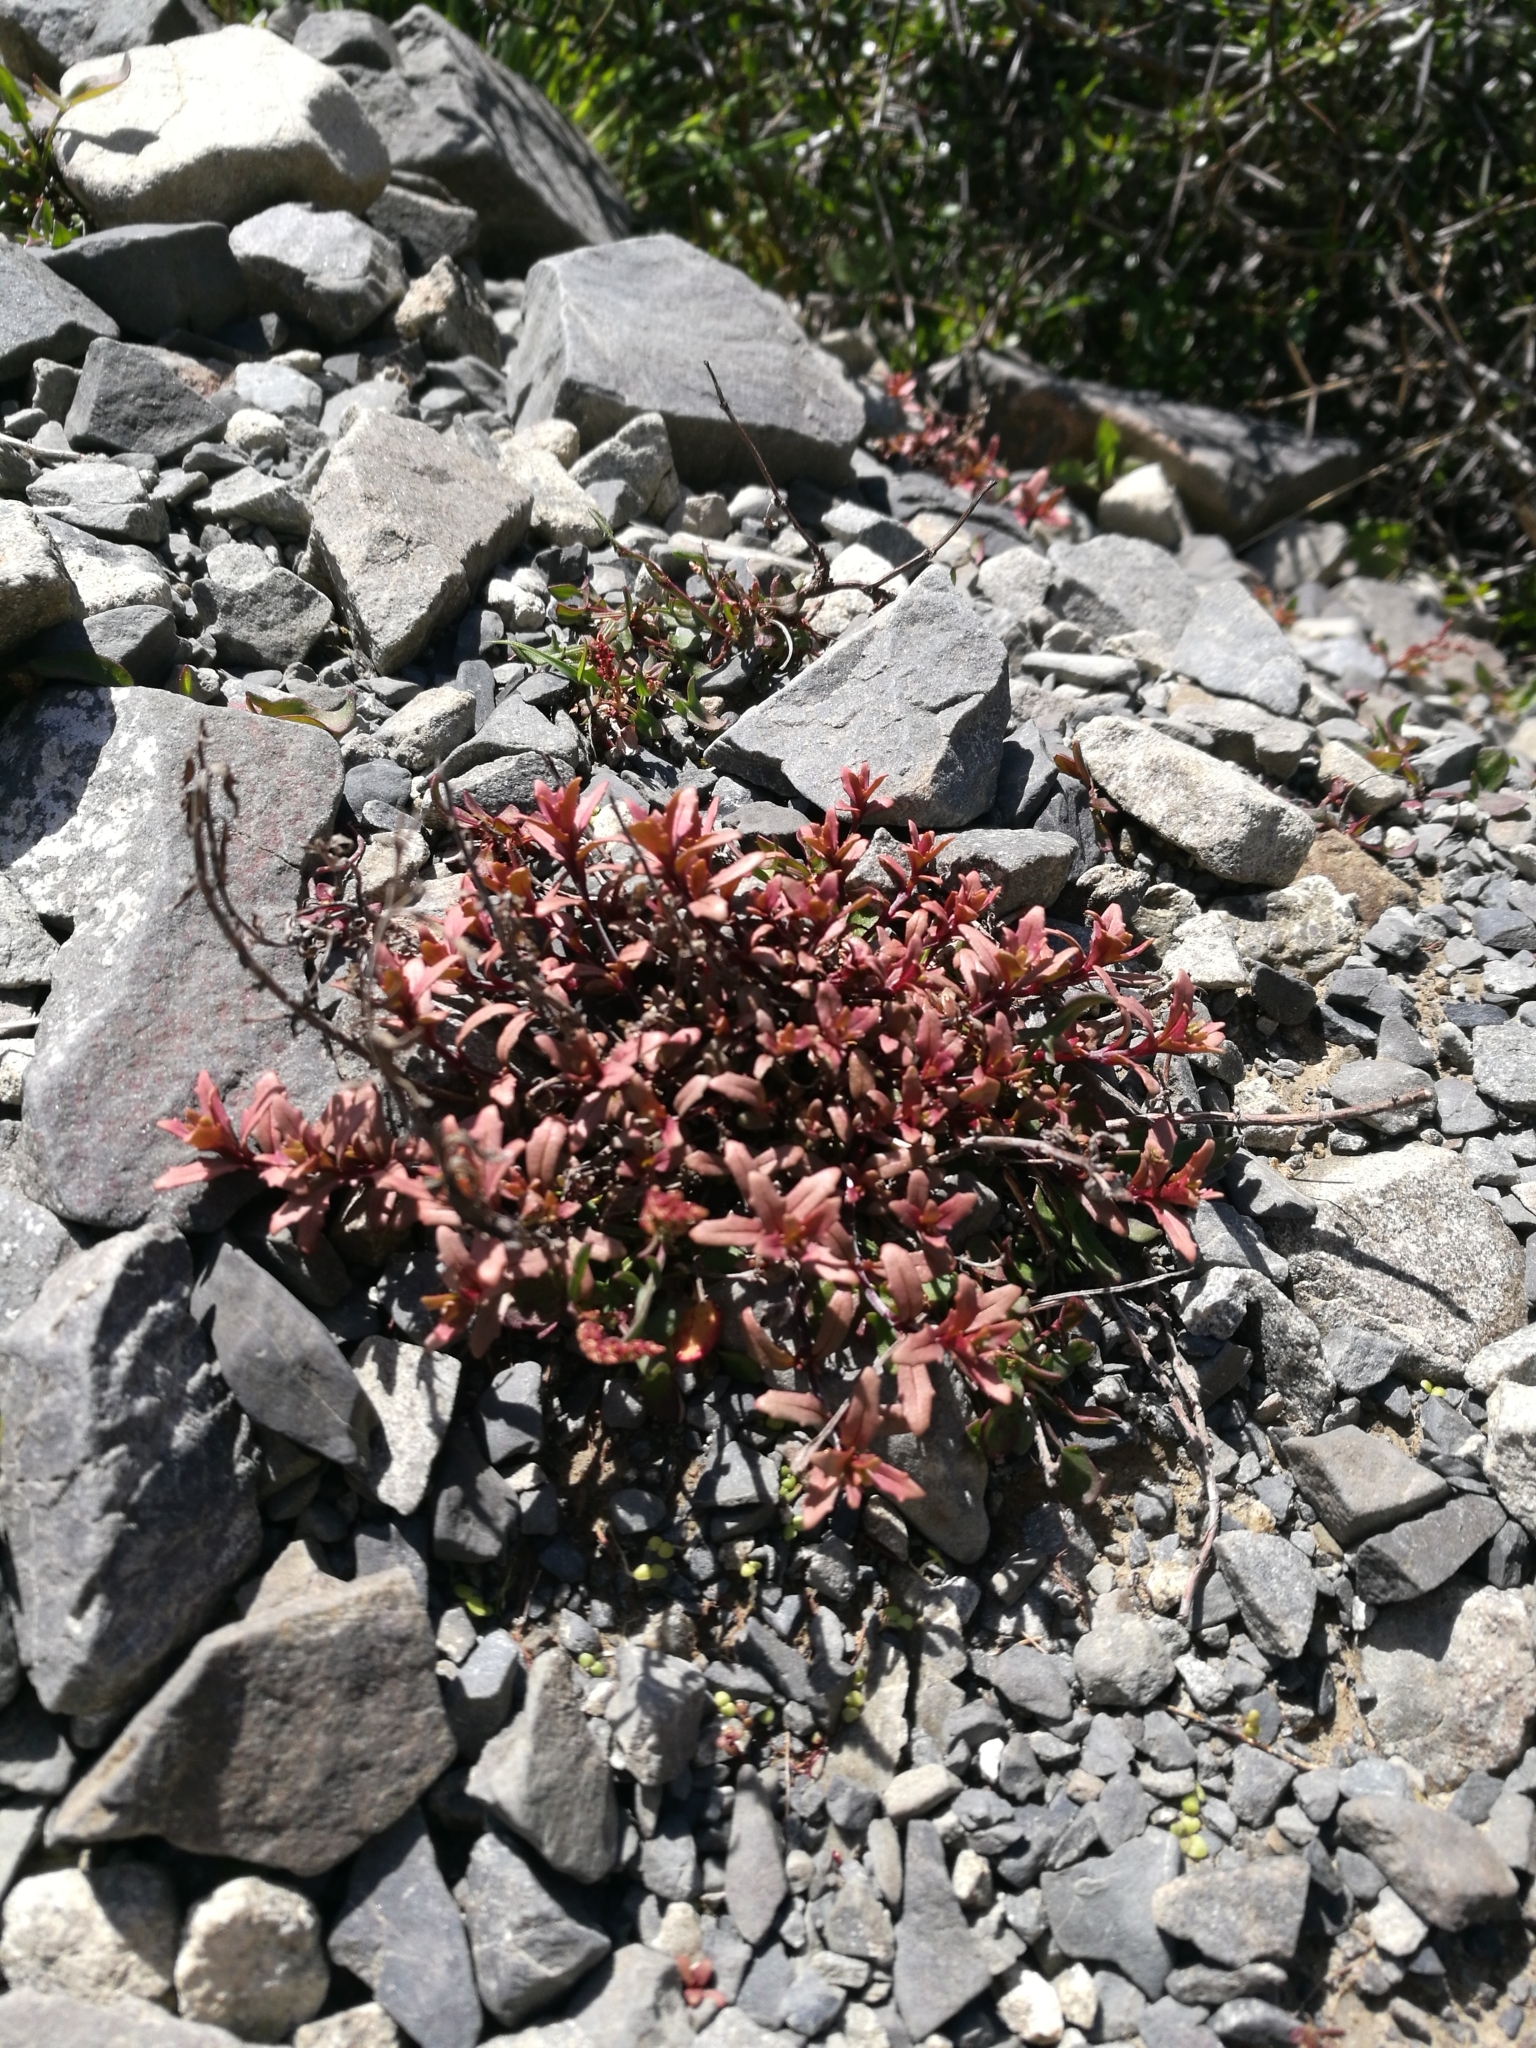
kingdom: Plantae
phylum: Tracheophyta
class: Magnoliopsida
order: Myrtales
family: Onagraceae
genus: Epilobium
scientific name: Epilobium melanocaulon
